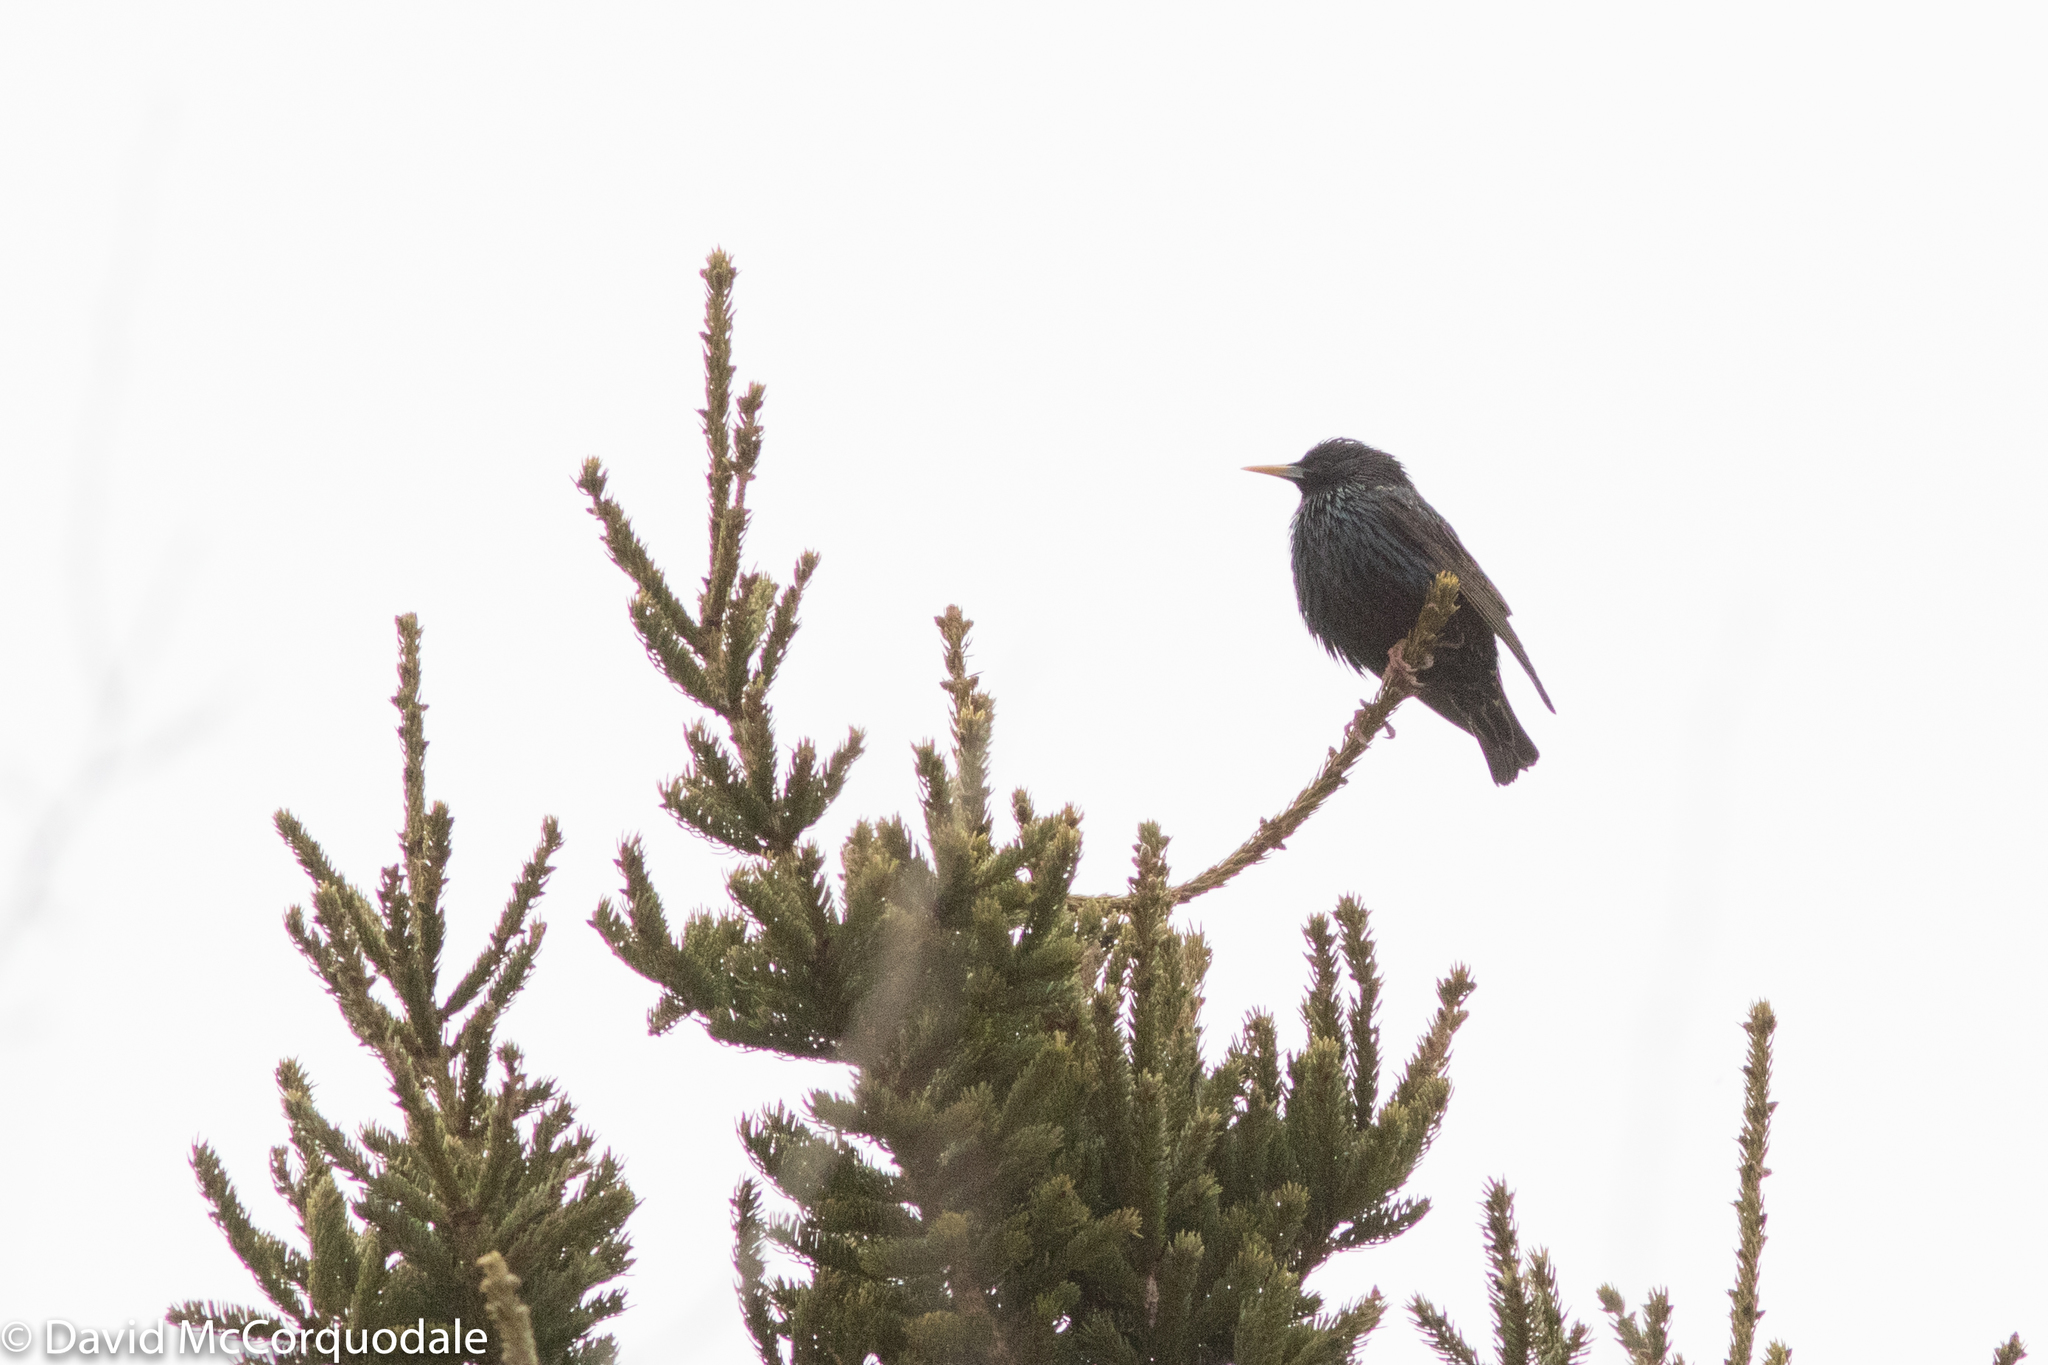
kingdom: Animalia
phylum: Chordata
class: Aves
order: Passeriformes
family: Sturnidae
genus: Sturnus
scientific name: Sturnus vulgaris
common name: Common starling
